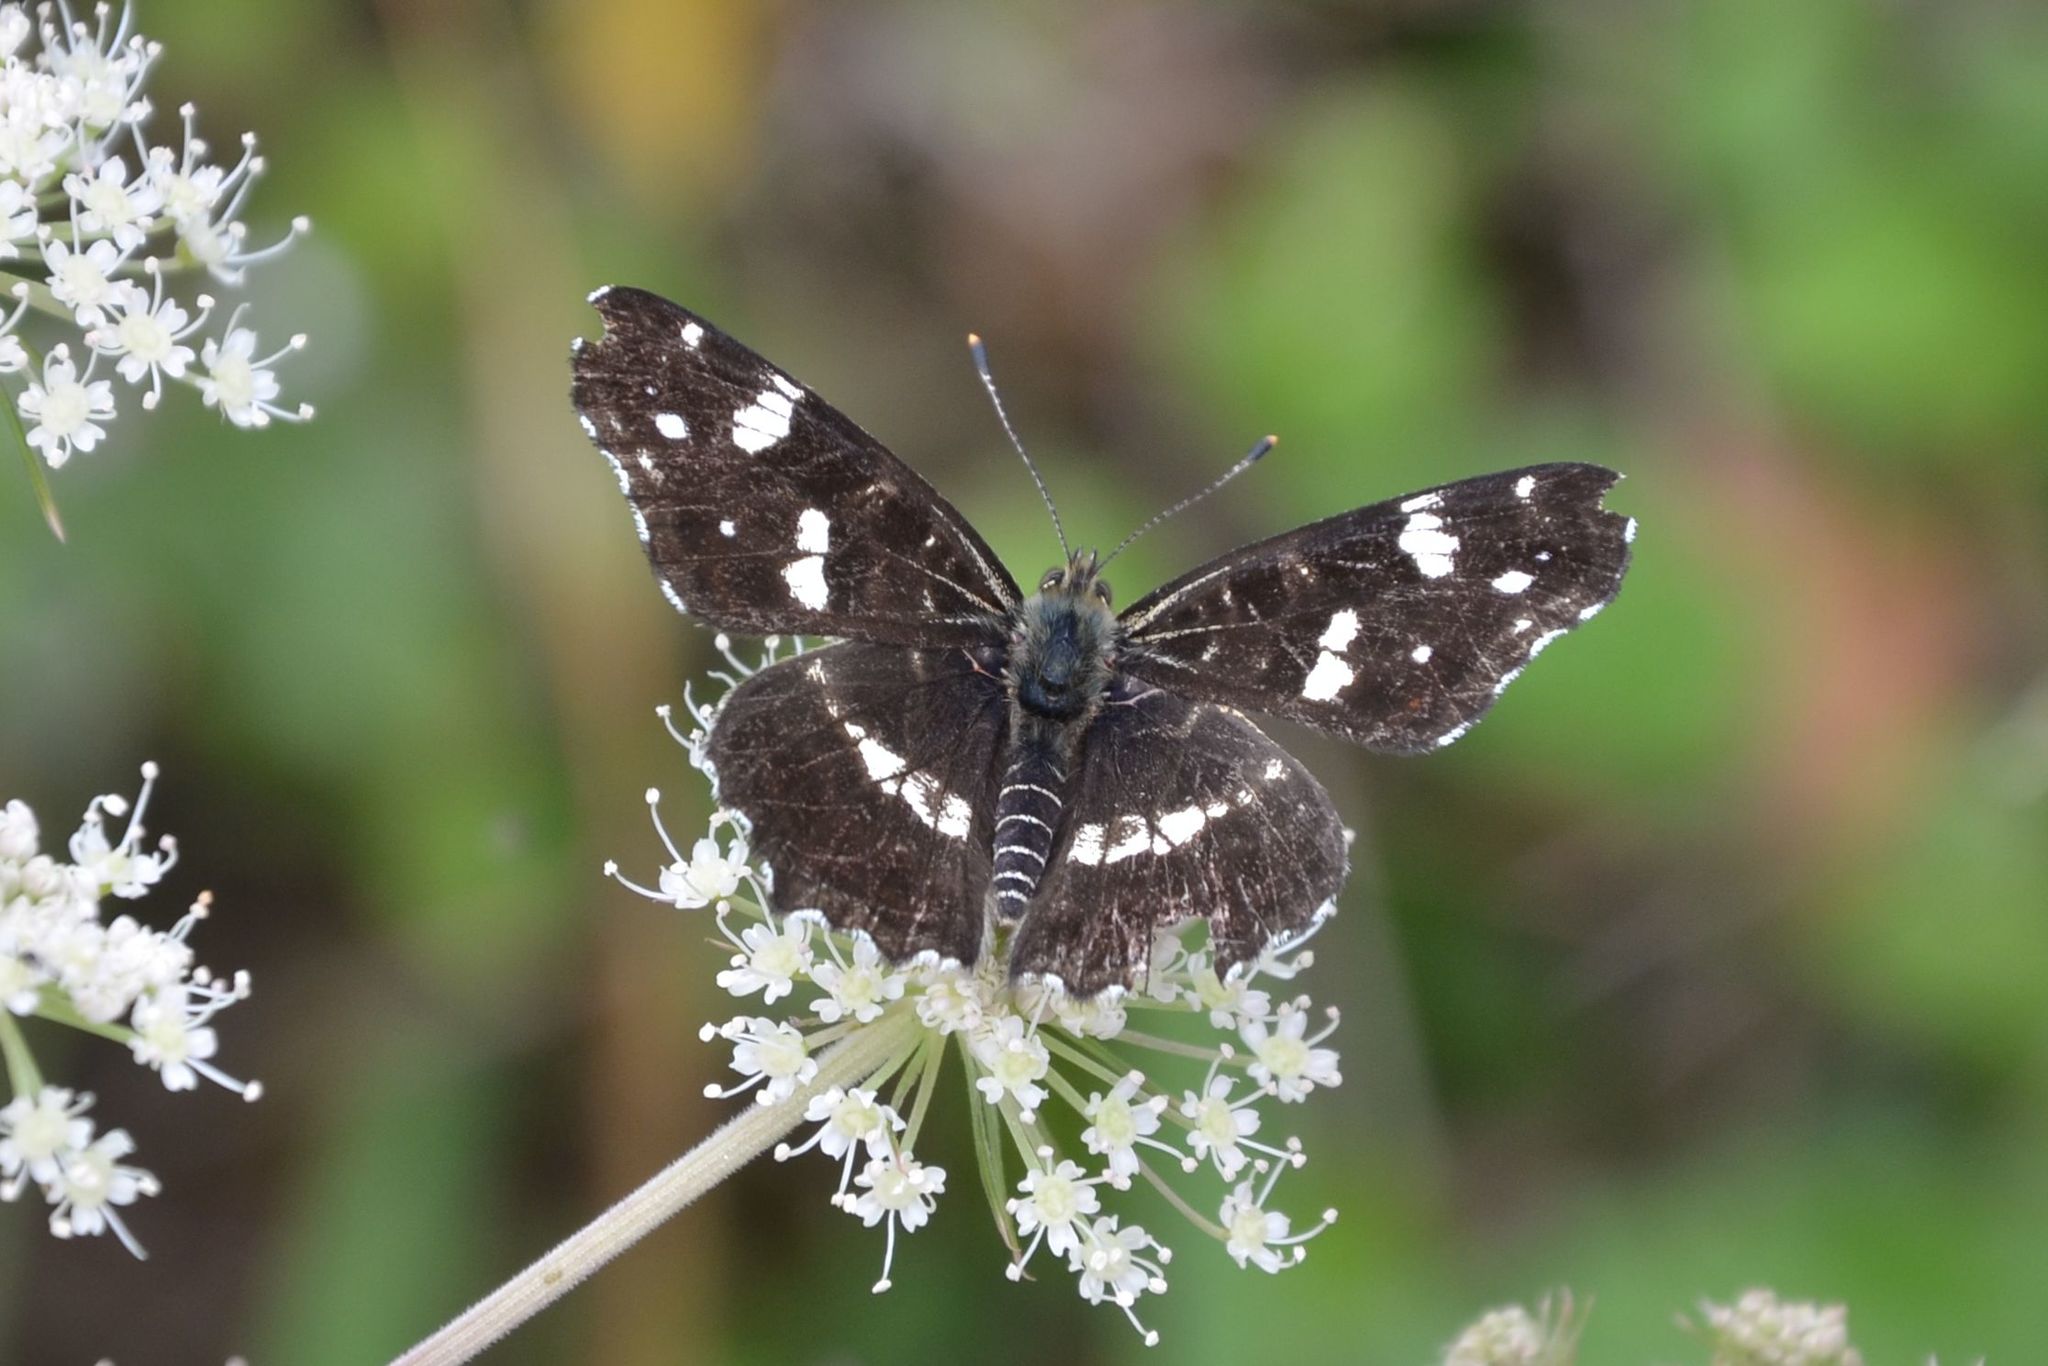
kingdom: Animalia
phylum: Arthropoda
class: Insecta
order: Lepidoptera
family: Nymphalidae
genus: Araschnia
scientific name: Araschnia levana
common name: Map butterfly
